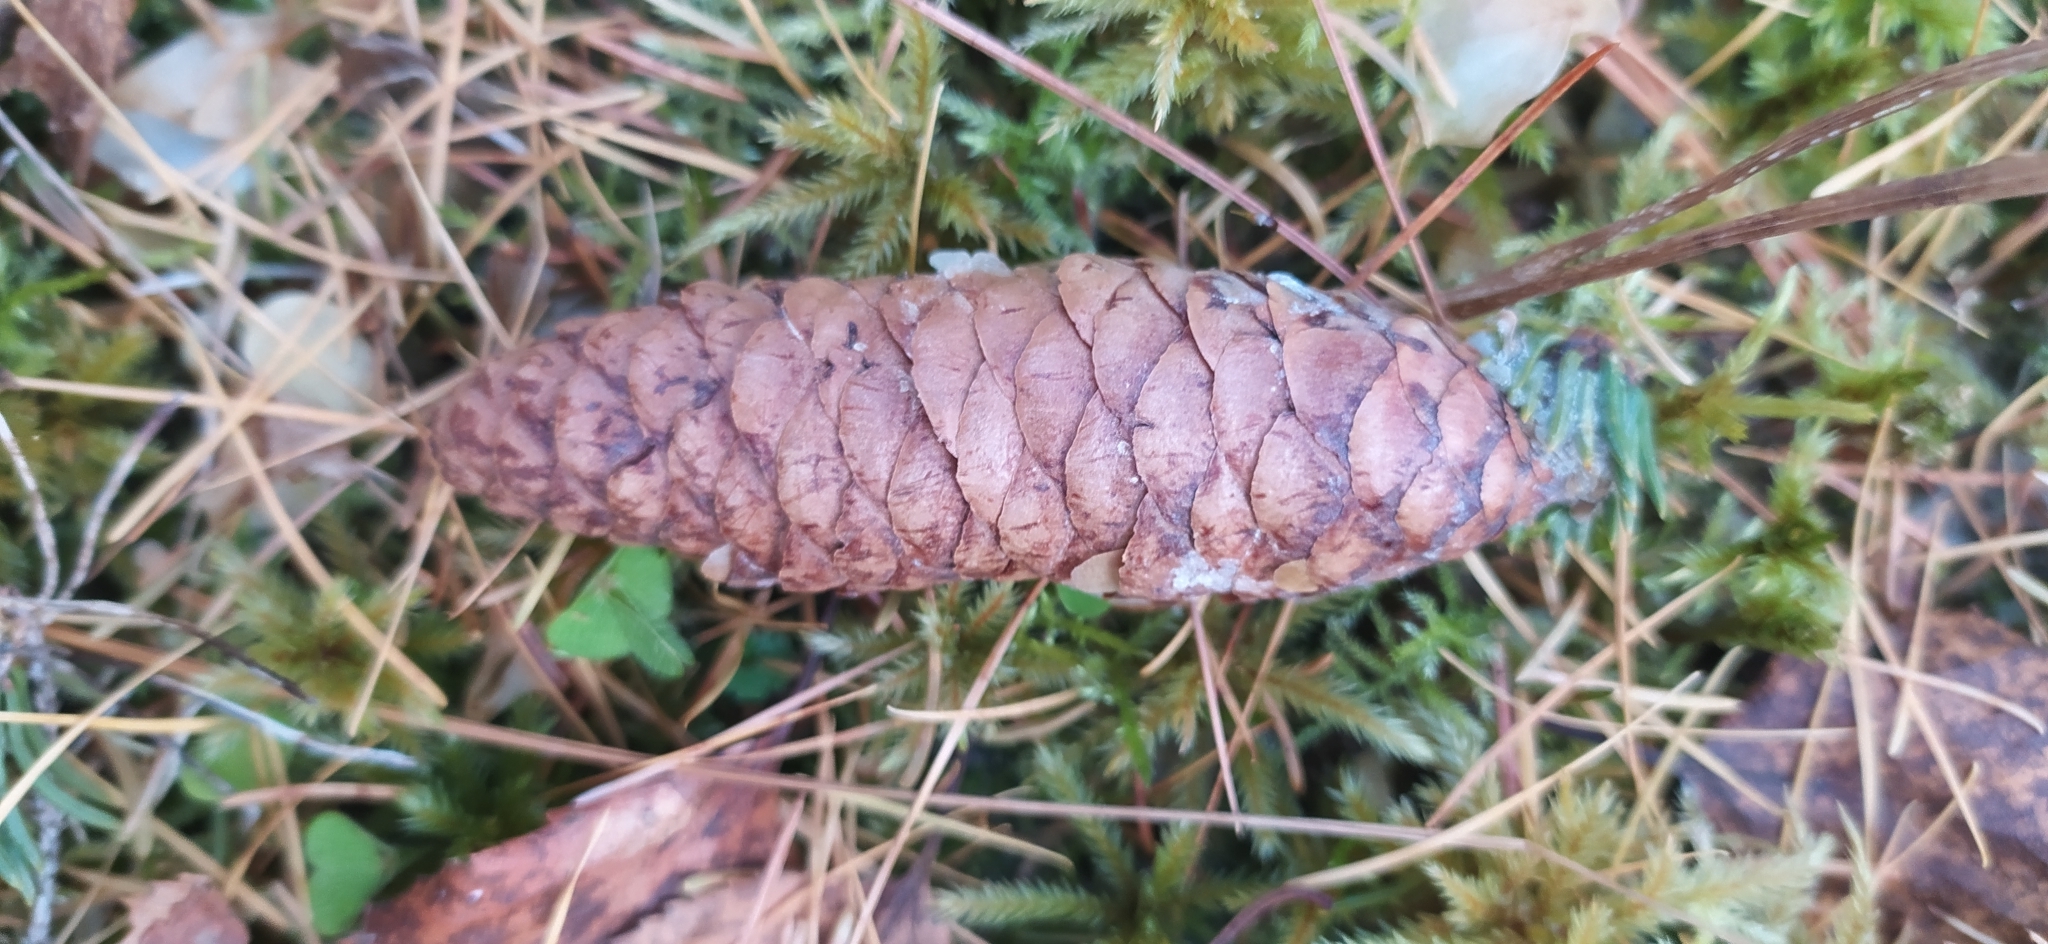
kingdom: Plantae
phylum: Tracheophyta
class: Pinopsida
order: Pinales
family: Pinaceae
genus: Picea
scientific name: Picea obovata
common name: Siberian spruce
